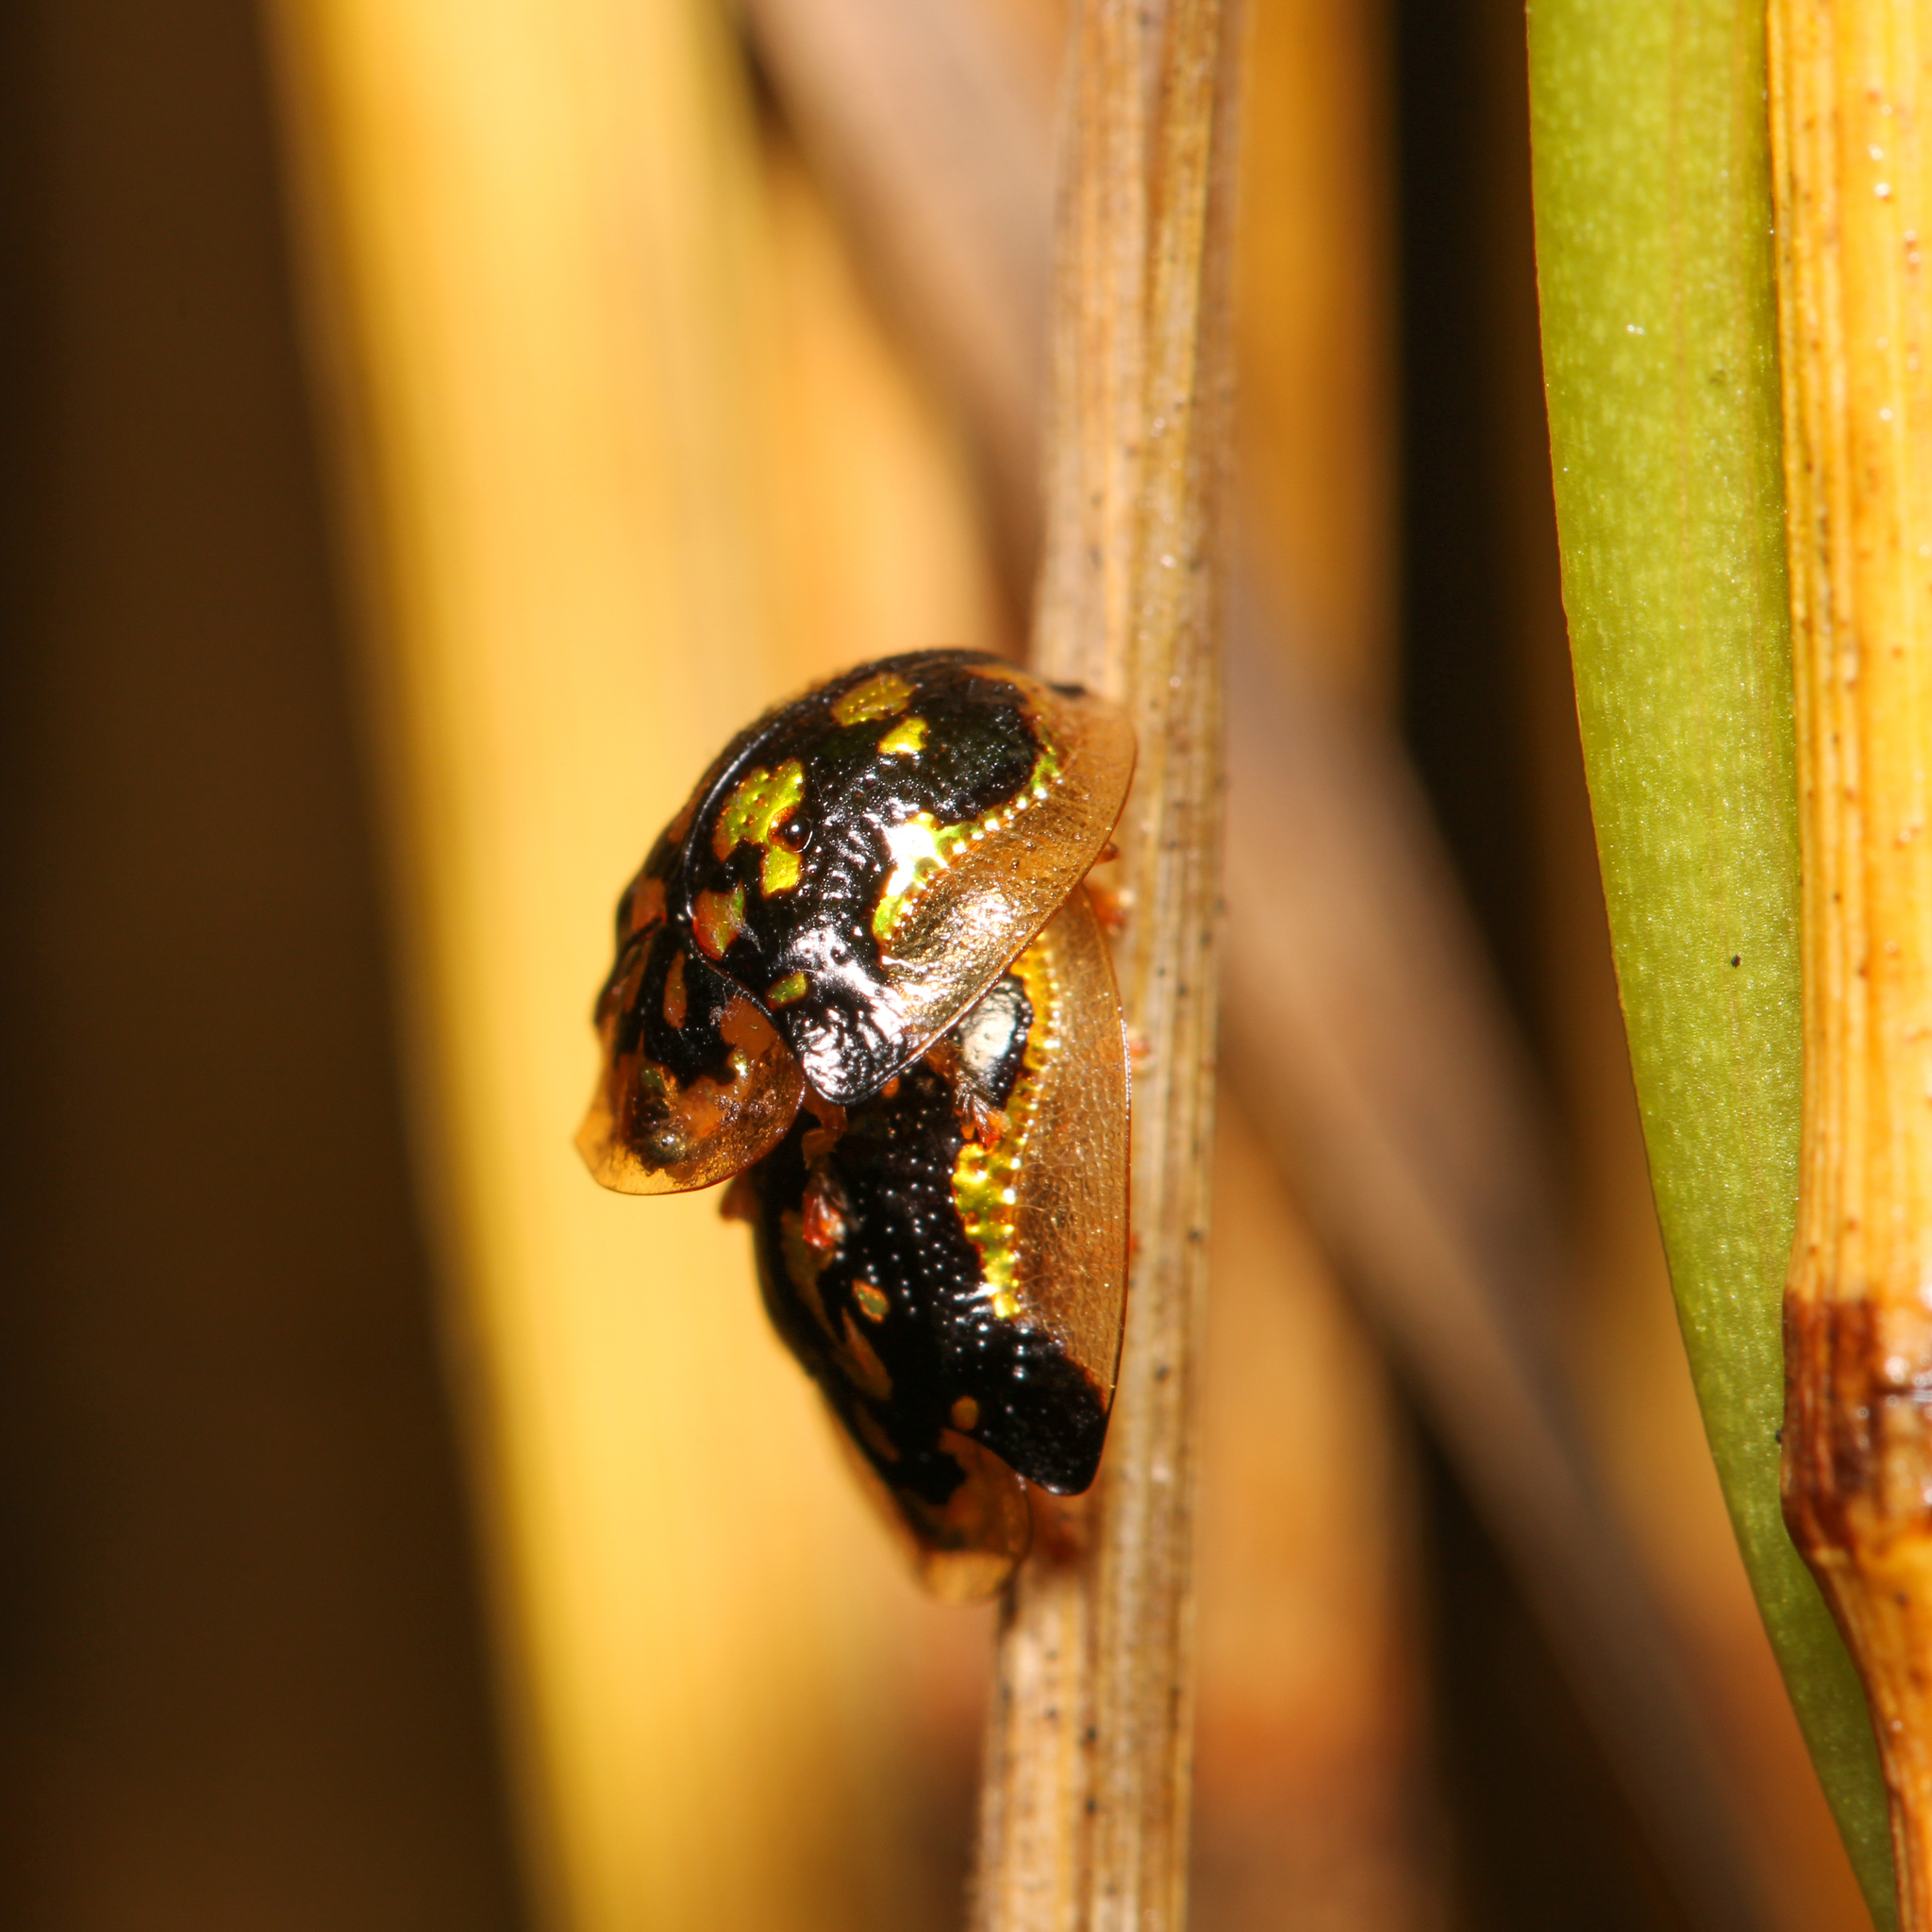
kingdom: Animalia
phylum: Arthropoda
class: Insecta
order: Coleoptera
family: Chrysomelidae
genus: Deloyala
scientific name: Deloyala guttata
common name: Mottled tortoise beetle
